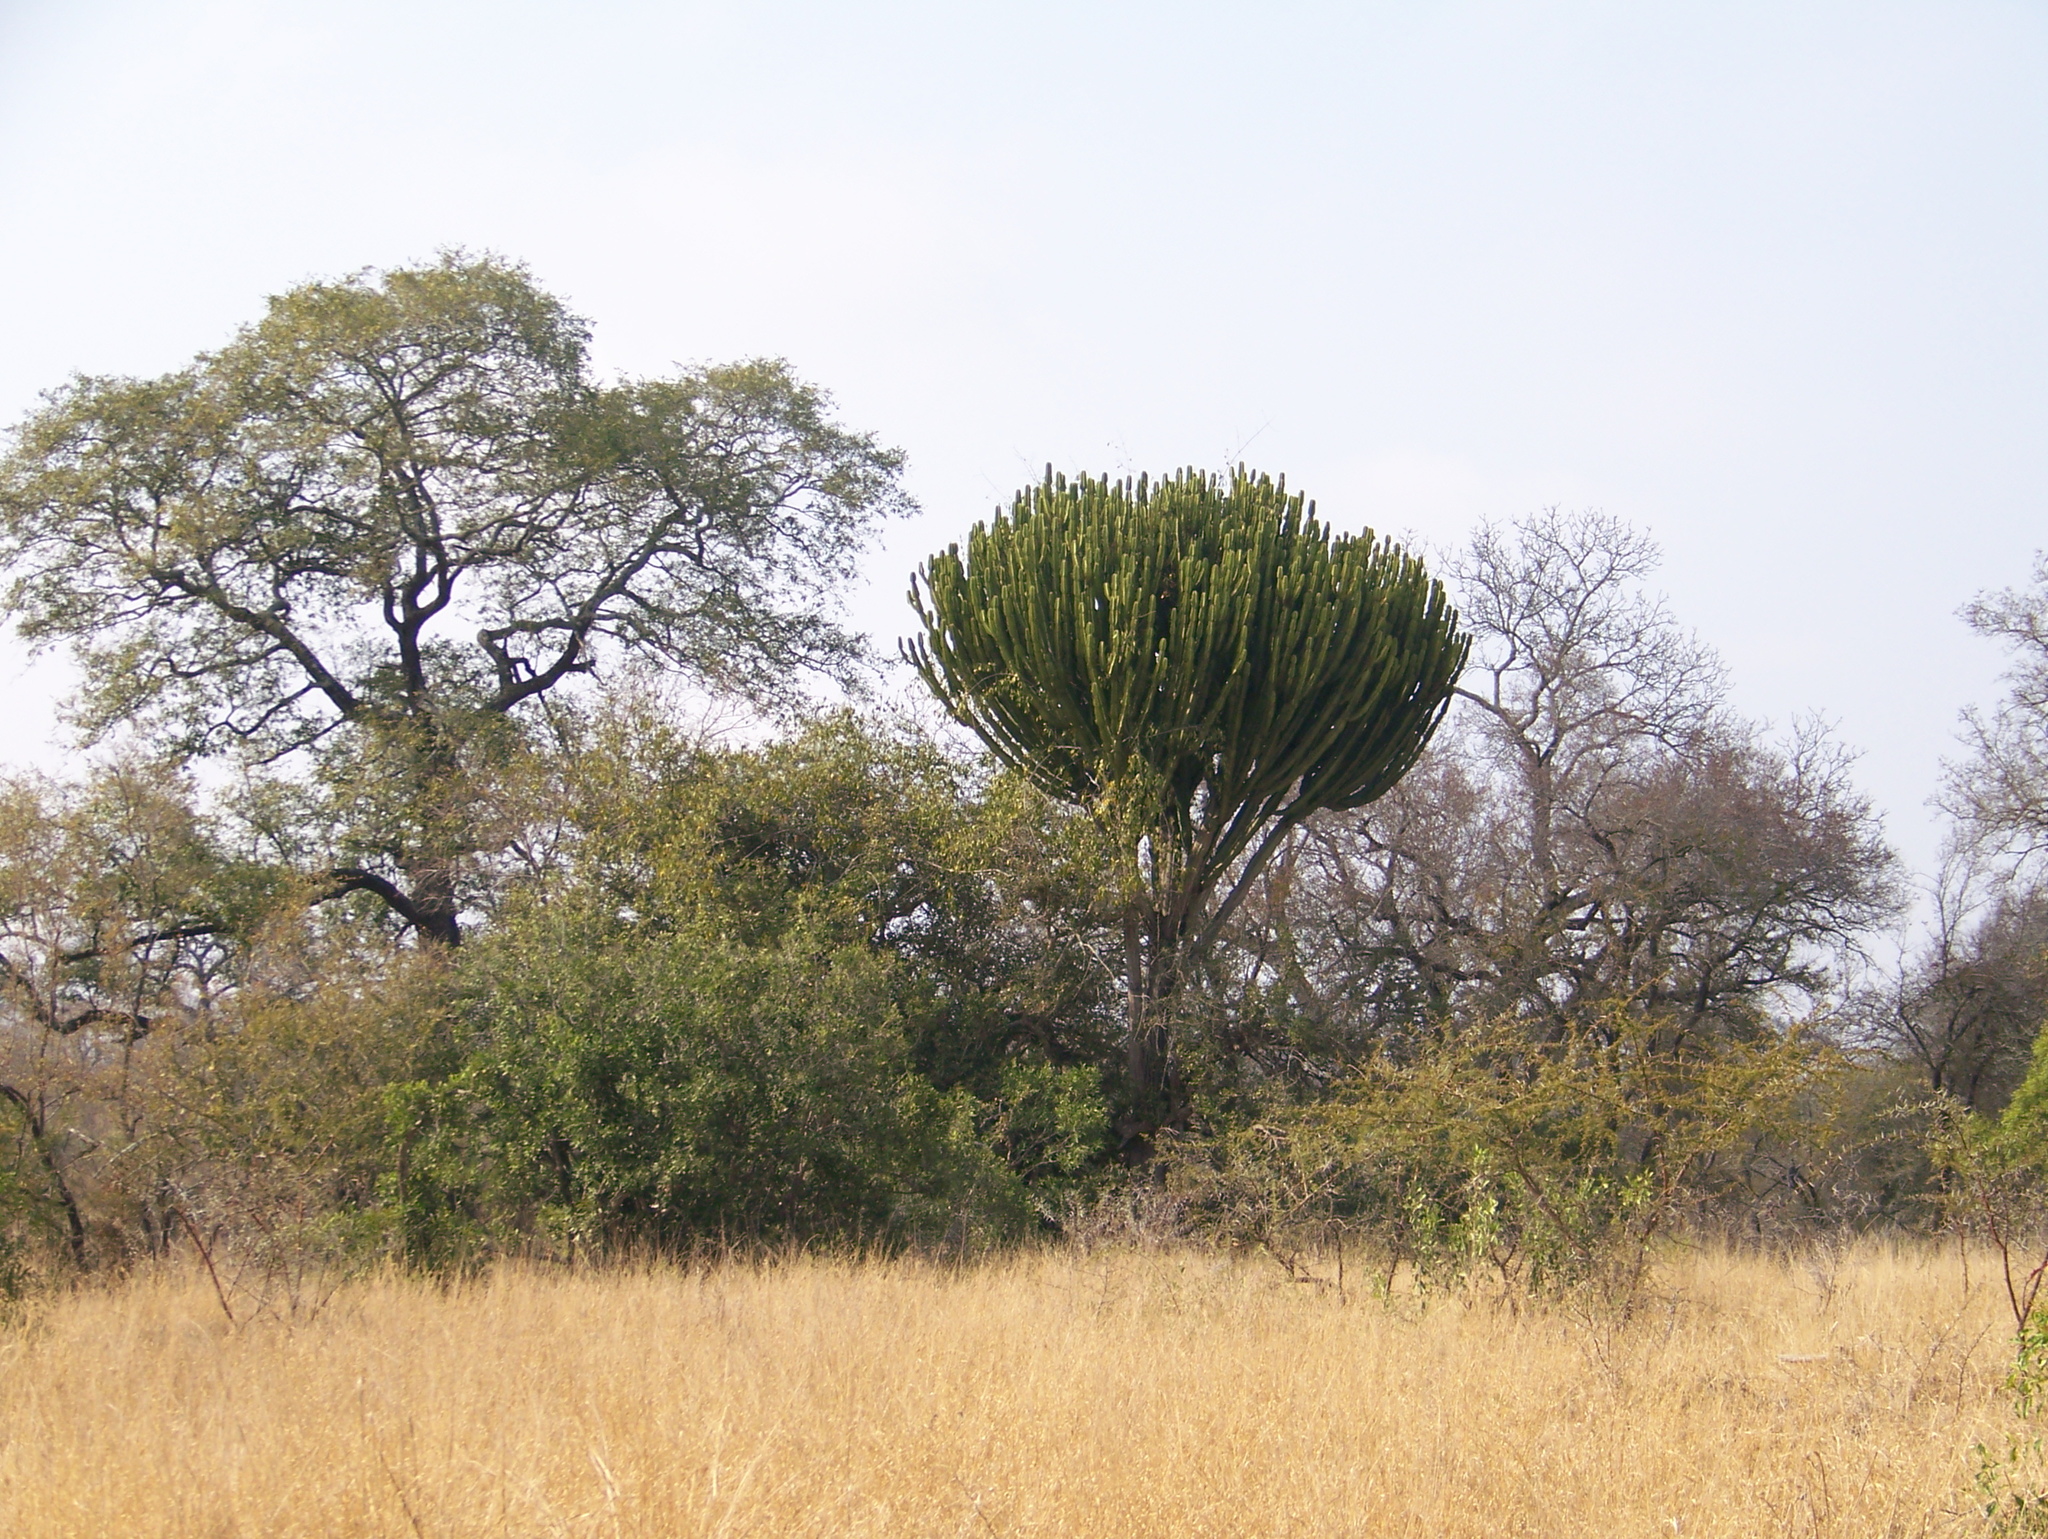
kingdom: Plantae
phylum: Tracheophyta
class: Magnoliopsida
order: Malpighiales
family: Euphorbiaceae
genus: Euphorbia
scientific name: Euphorbia ingens
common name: Cactus spurge
